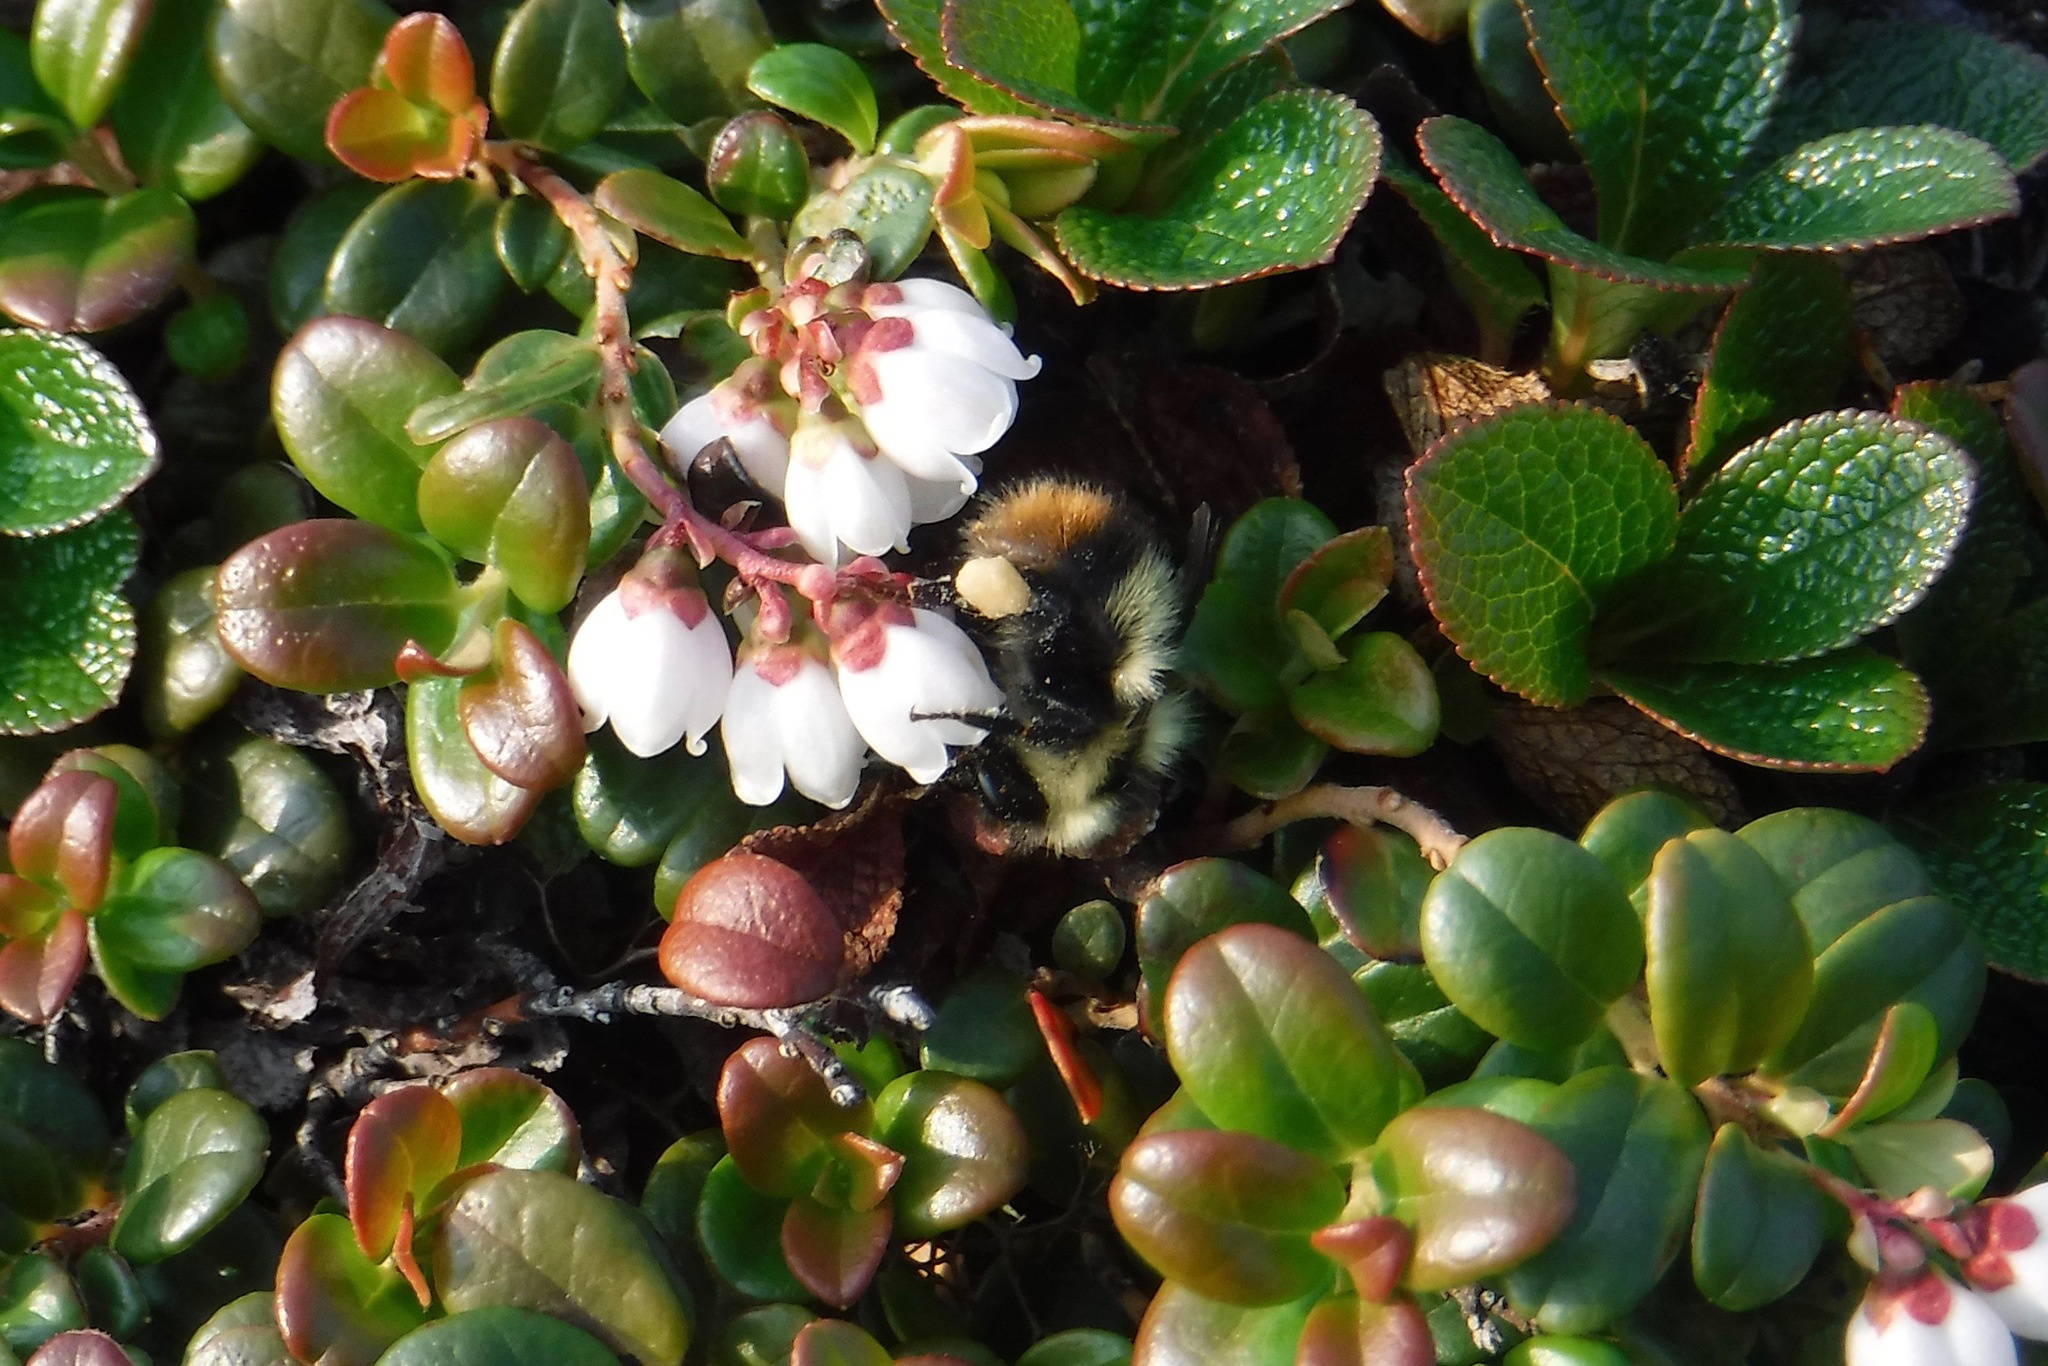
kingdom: Animalia
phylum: Arthropoda
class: Insecta
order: Hymenoptera
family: Apidae
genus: Bombus
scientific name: Bombus frigidus
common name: Frigid bumble bee
